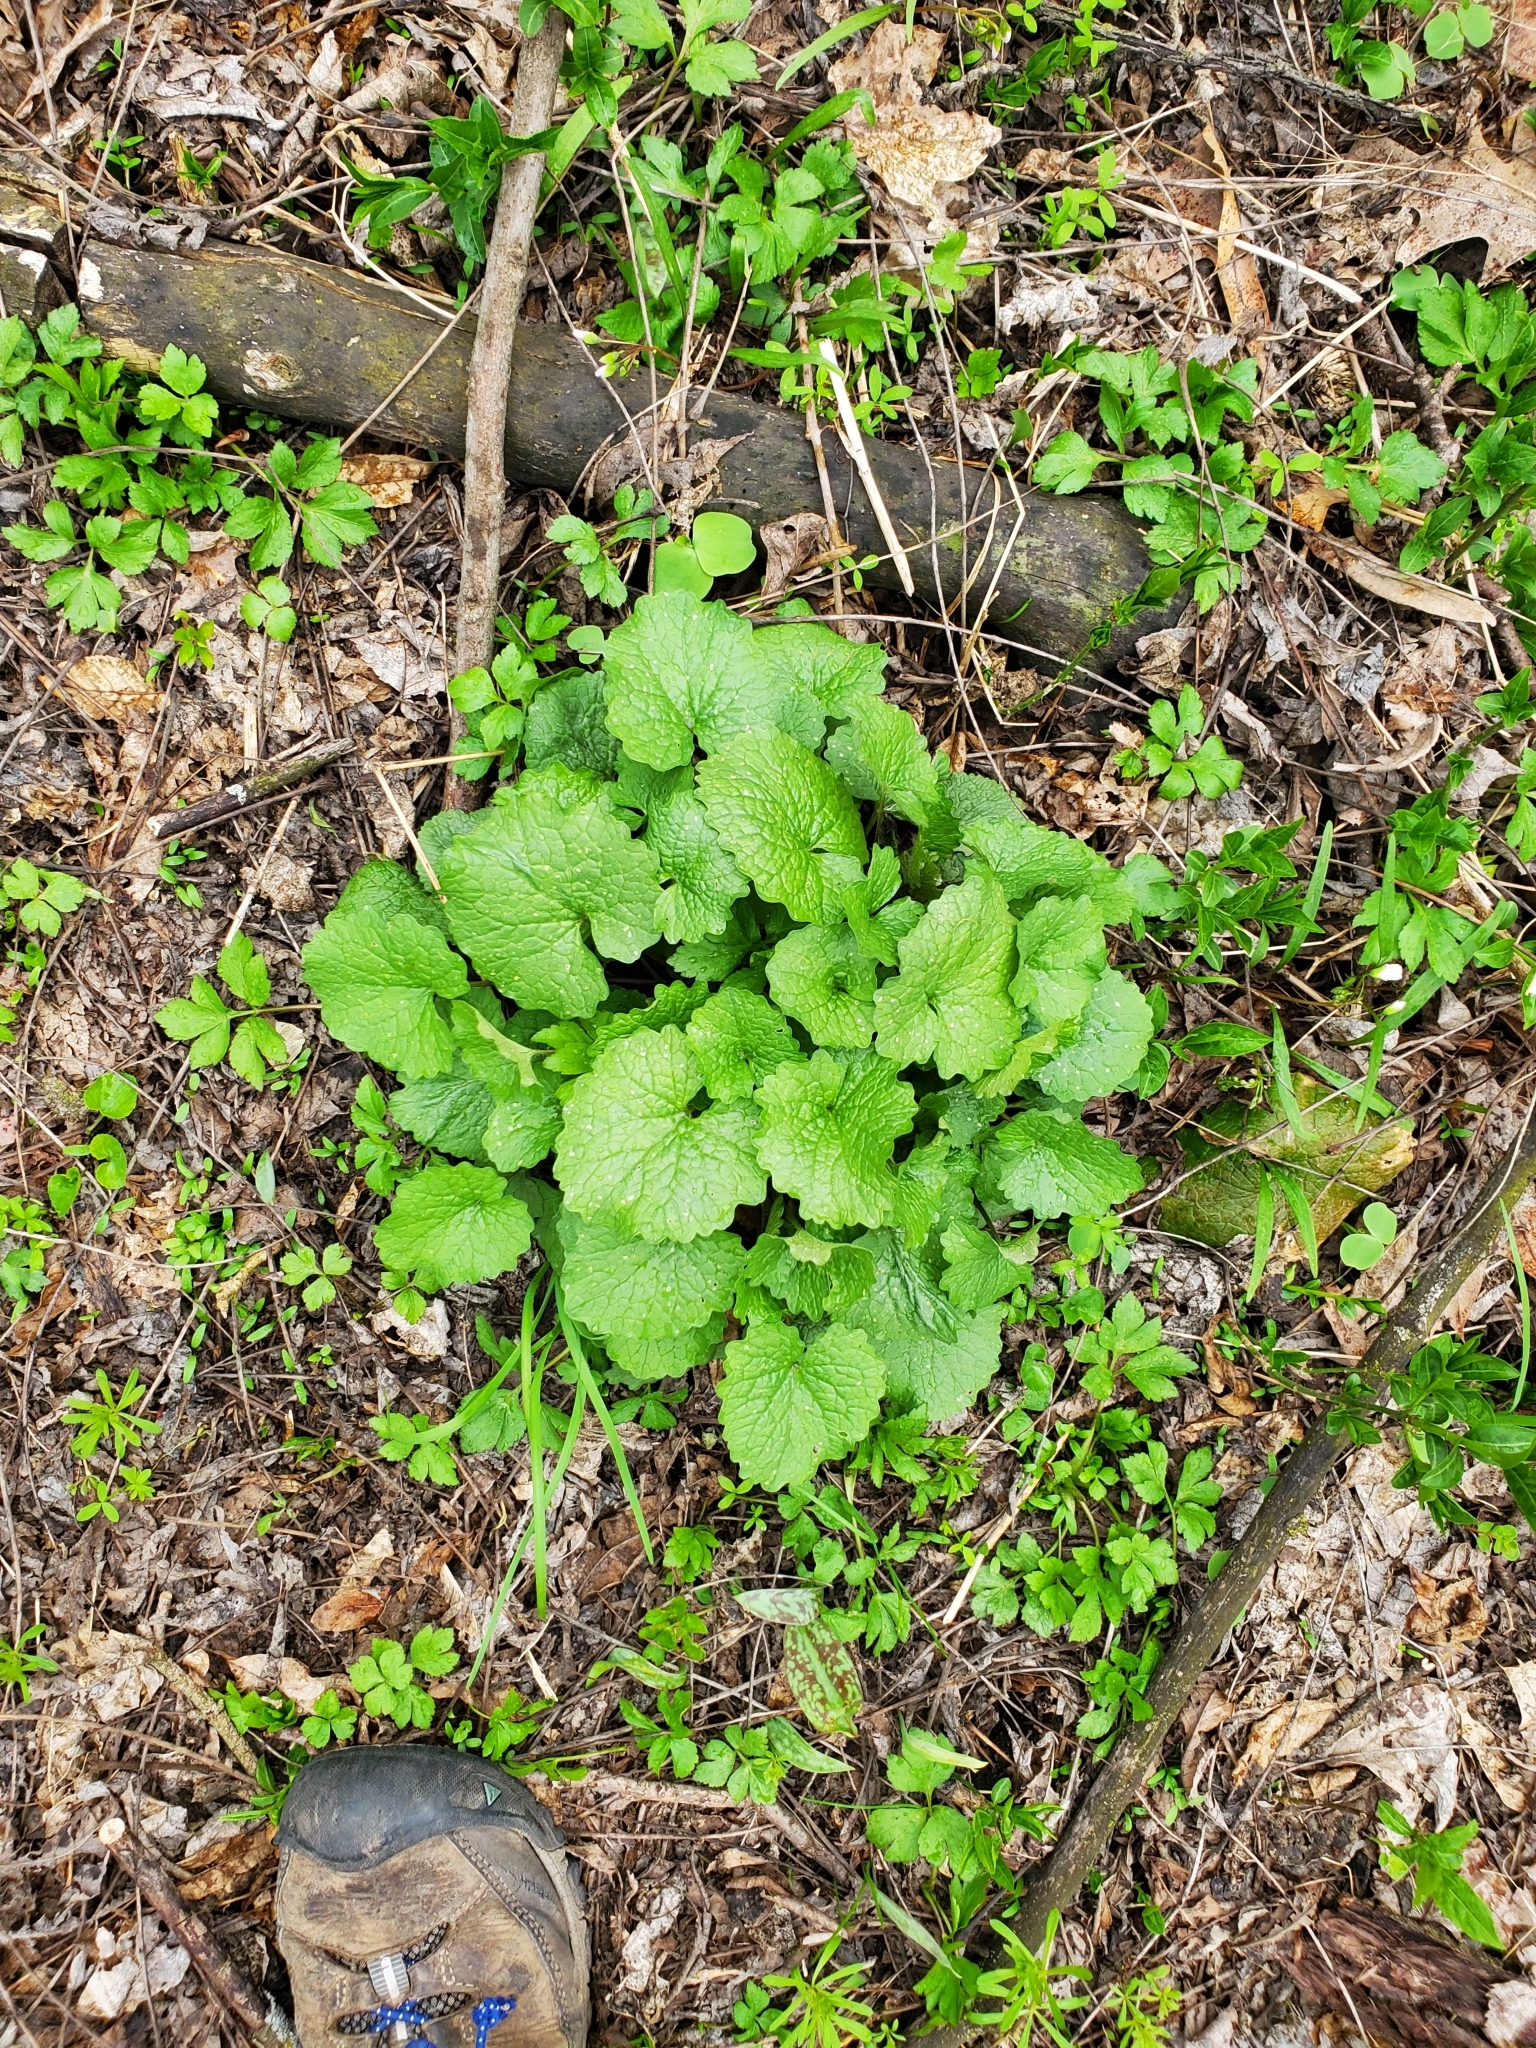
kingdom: Plantae
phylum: Tracheophyta
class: Magnoliopsida
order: Brassicales
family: Brassicaceae
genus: Alliaria
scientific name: Alliaria petiolata
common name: Garlic mustard
